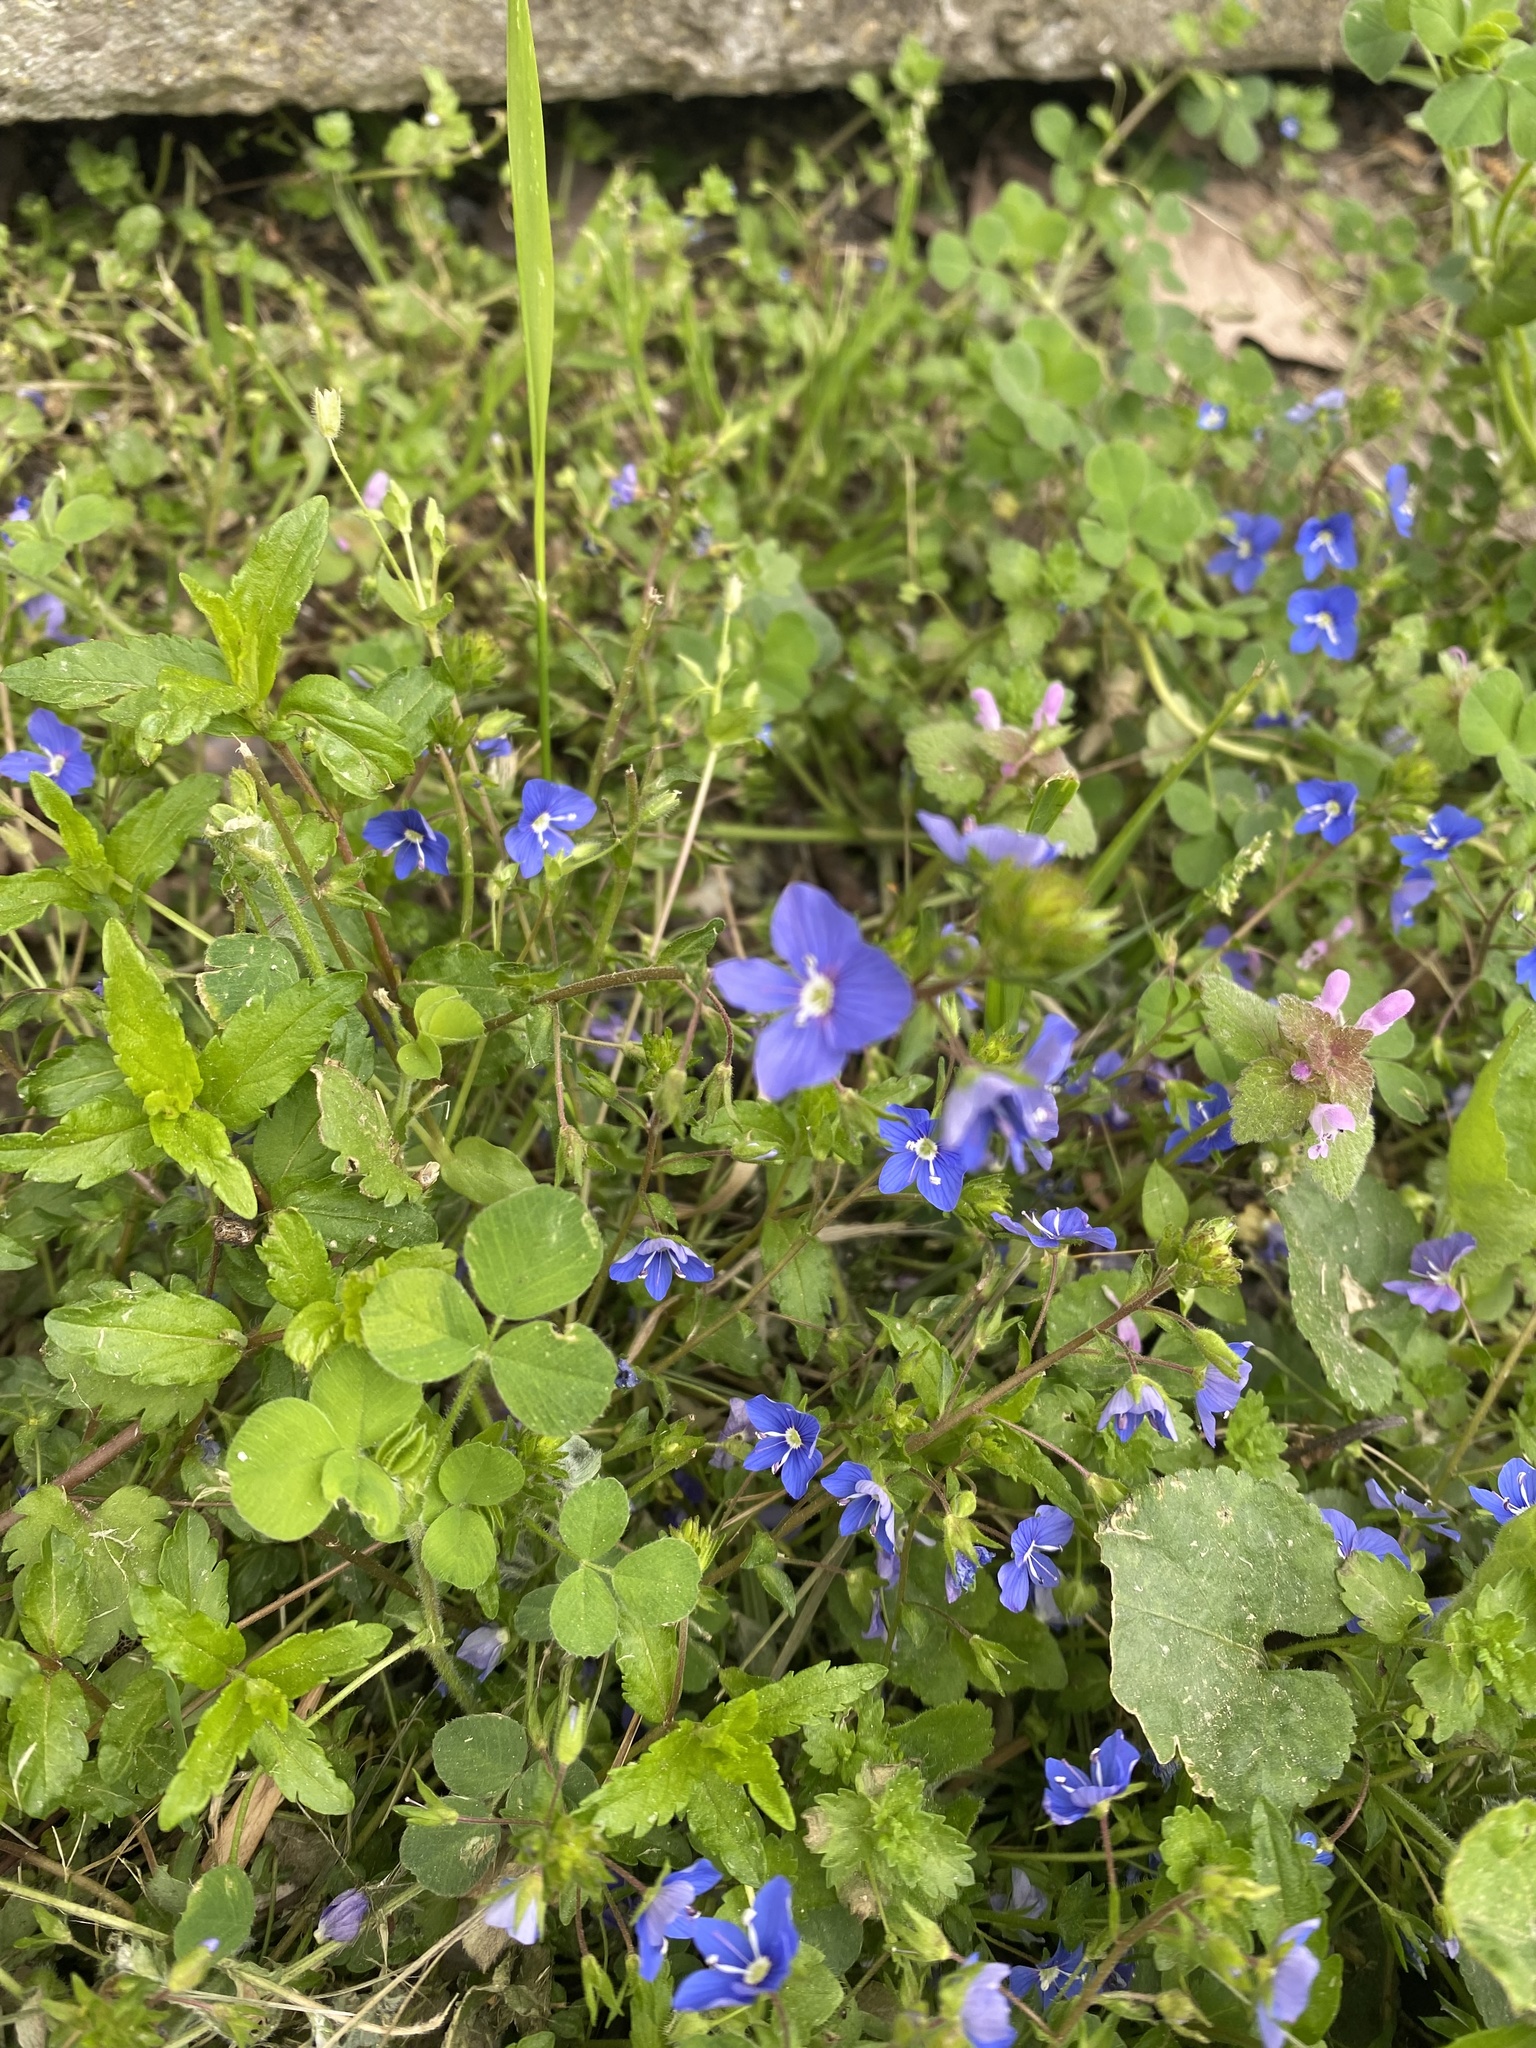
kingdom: Plantae
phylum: Tracheophyta
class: Magnoliopsida
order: Lamiales
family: Plantaginaceae
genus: Veronica
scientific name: Veronica
